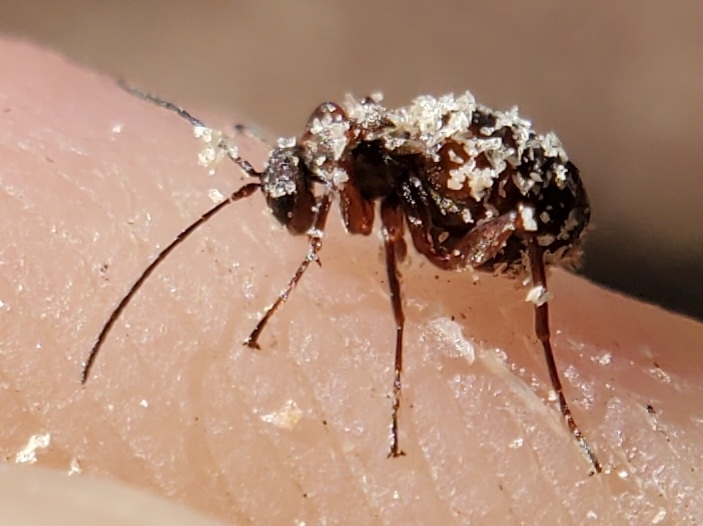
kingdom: Animalia
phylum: Arthropoda
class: Insecta
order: Hymenoptera
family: Cynipidae
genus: Acraspis
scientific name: Acraspis
